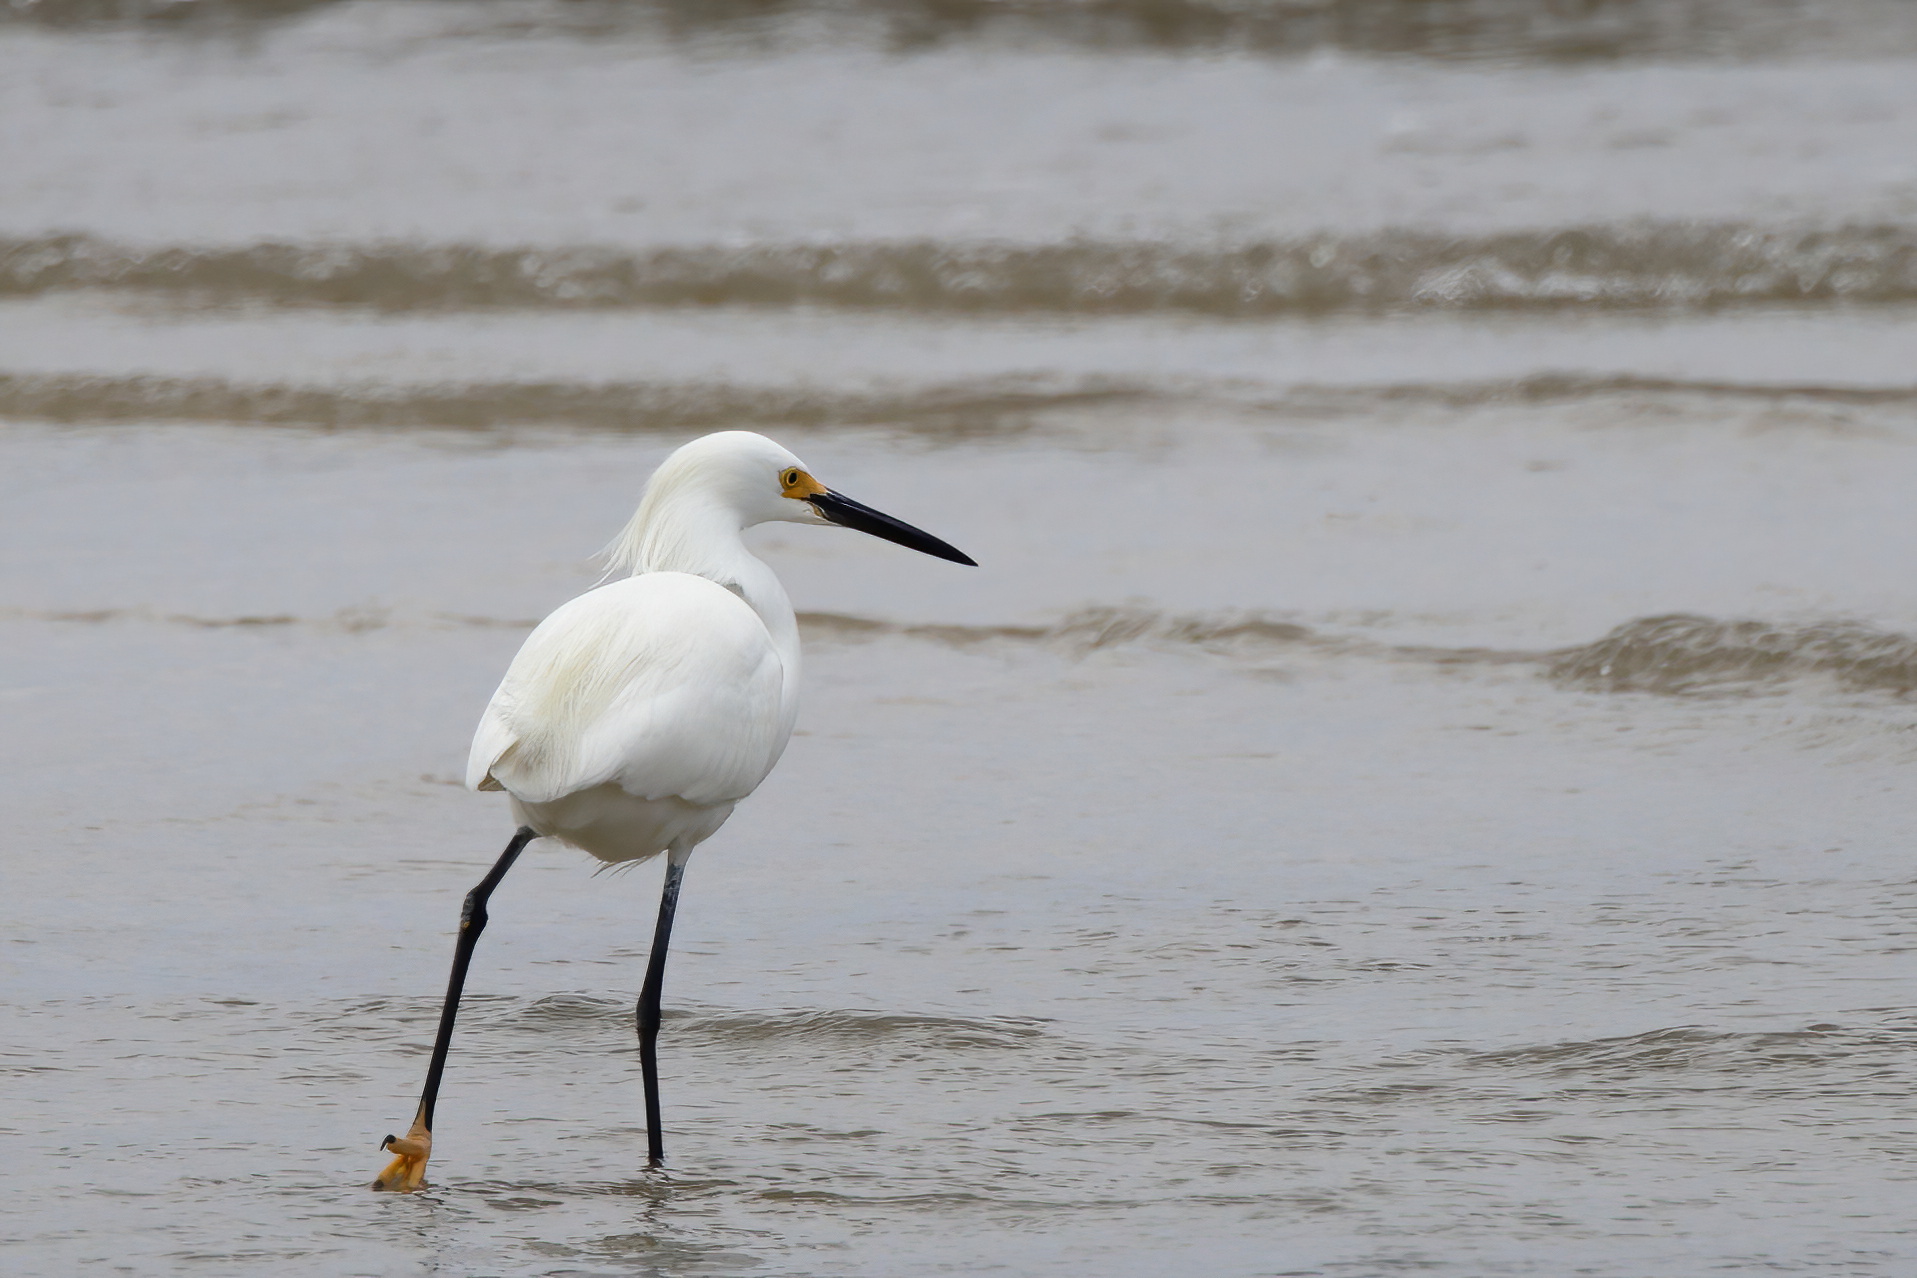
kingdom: Animalia
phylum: Chordata
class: Aves
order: Pelecaniformes
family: Ardeidae
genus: Egretta
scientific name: Egretta thula
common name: Snowy egret
